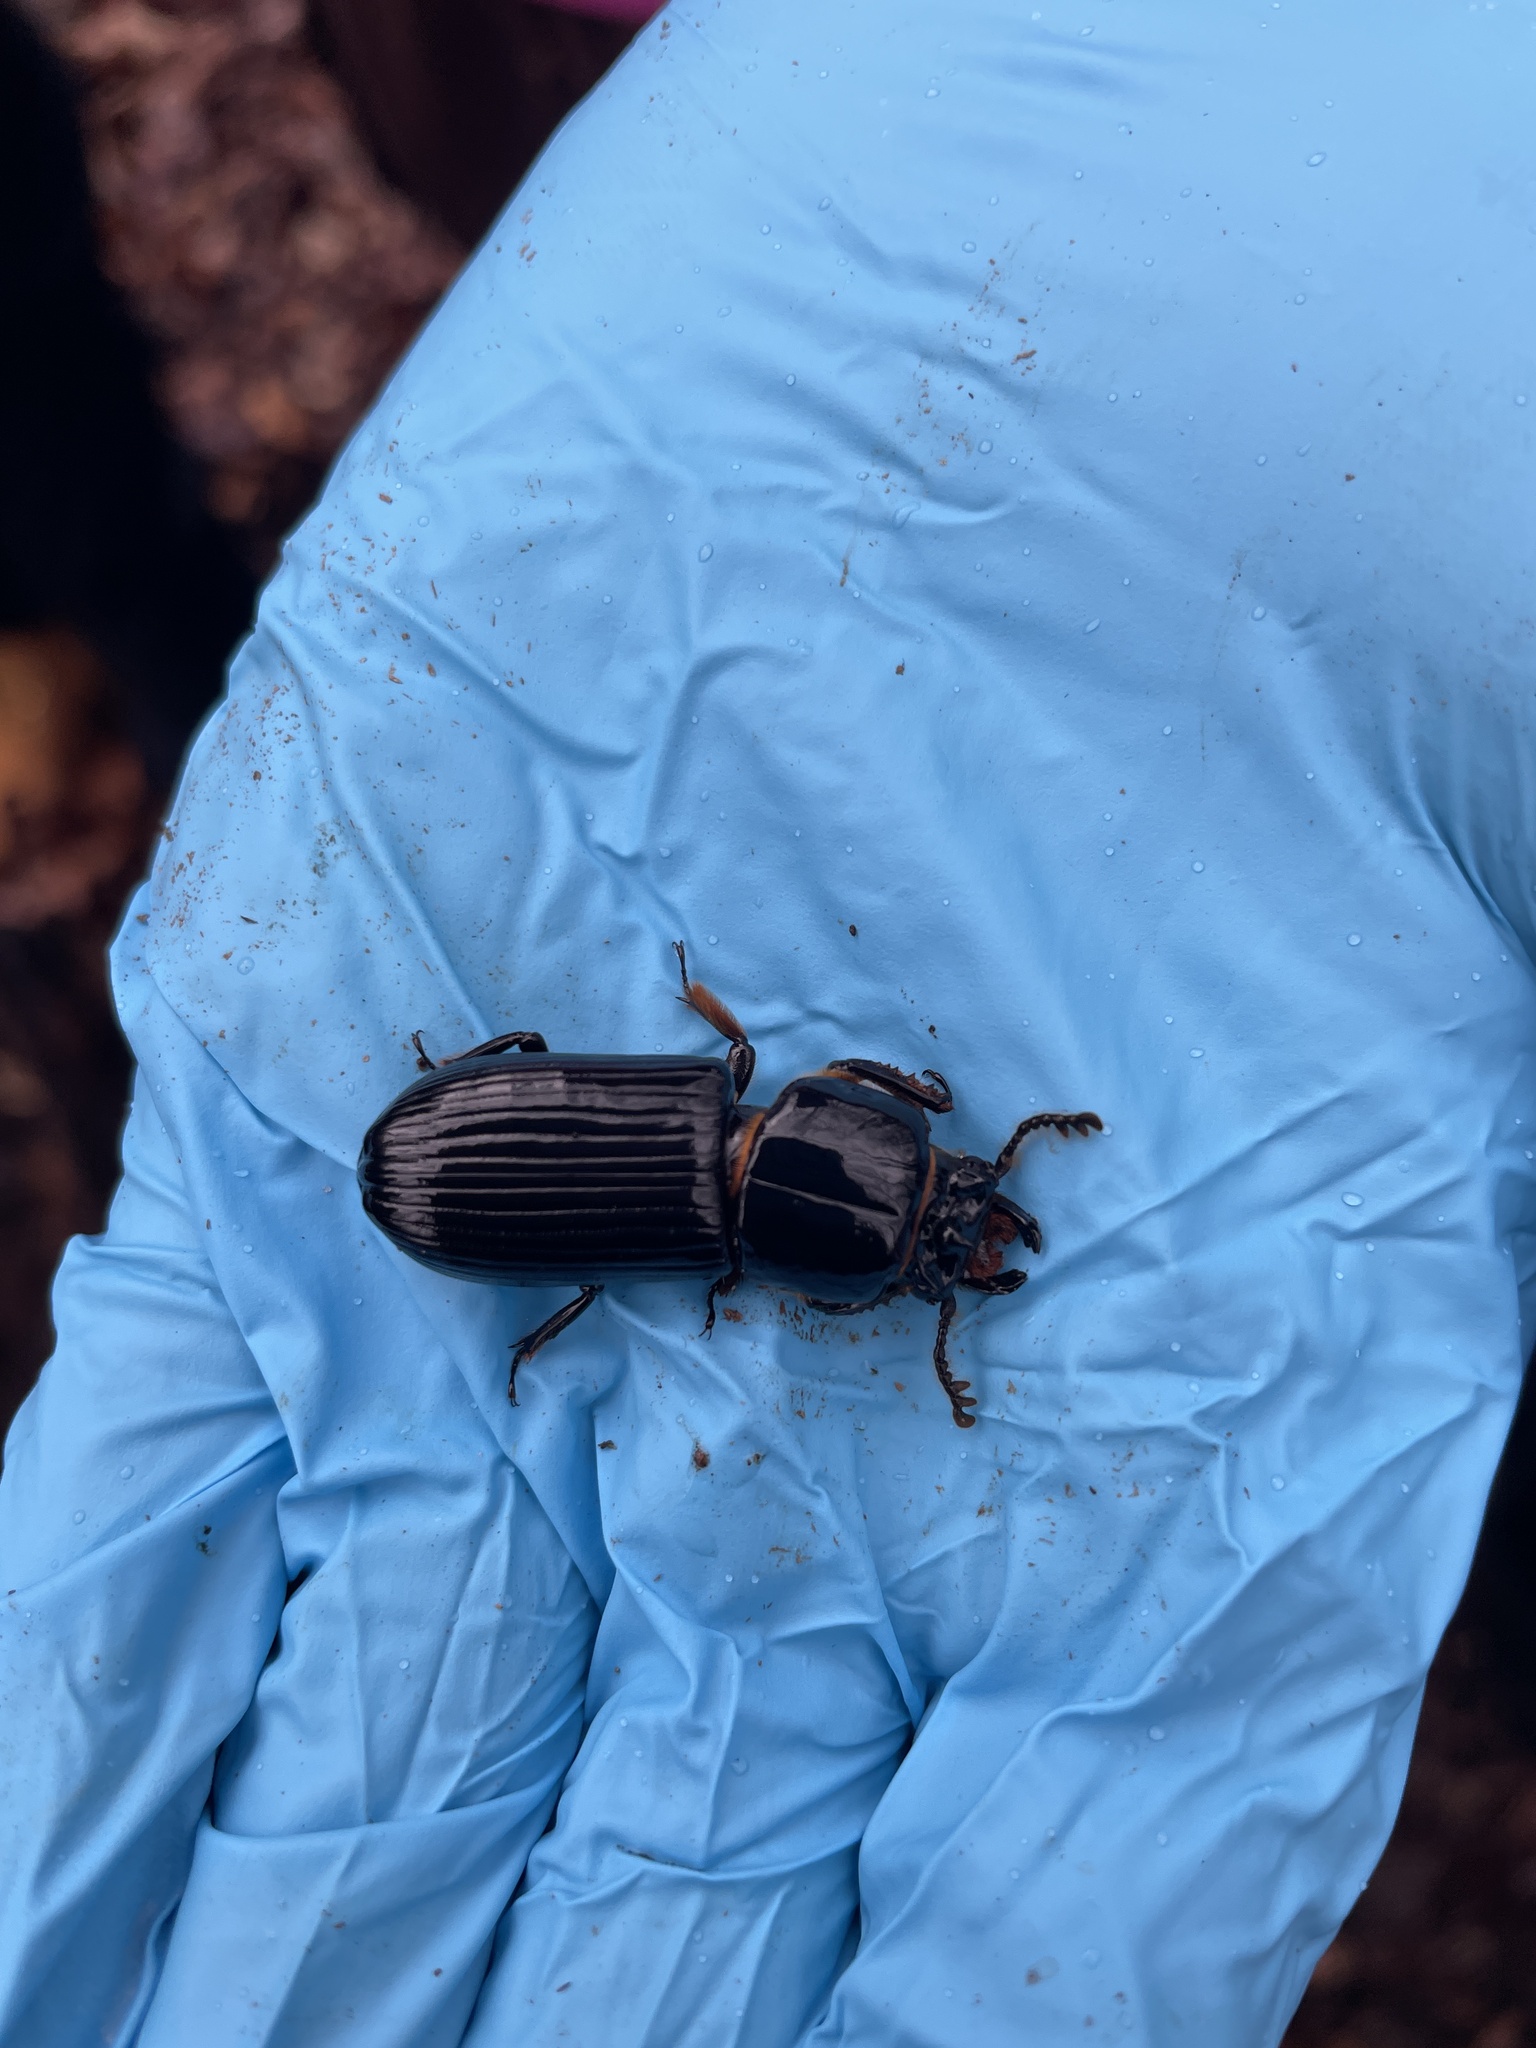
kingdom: Animalia
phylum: Arthropoda
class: Insecta
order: Coleoptera
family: Passalidae
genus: Odontotaenius
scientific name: Odontotaenius disjunctus
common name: Patent leather beetle
